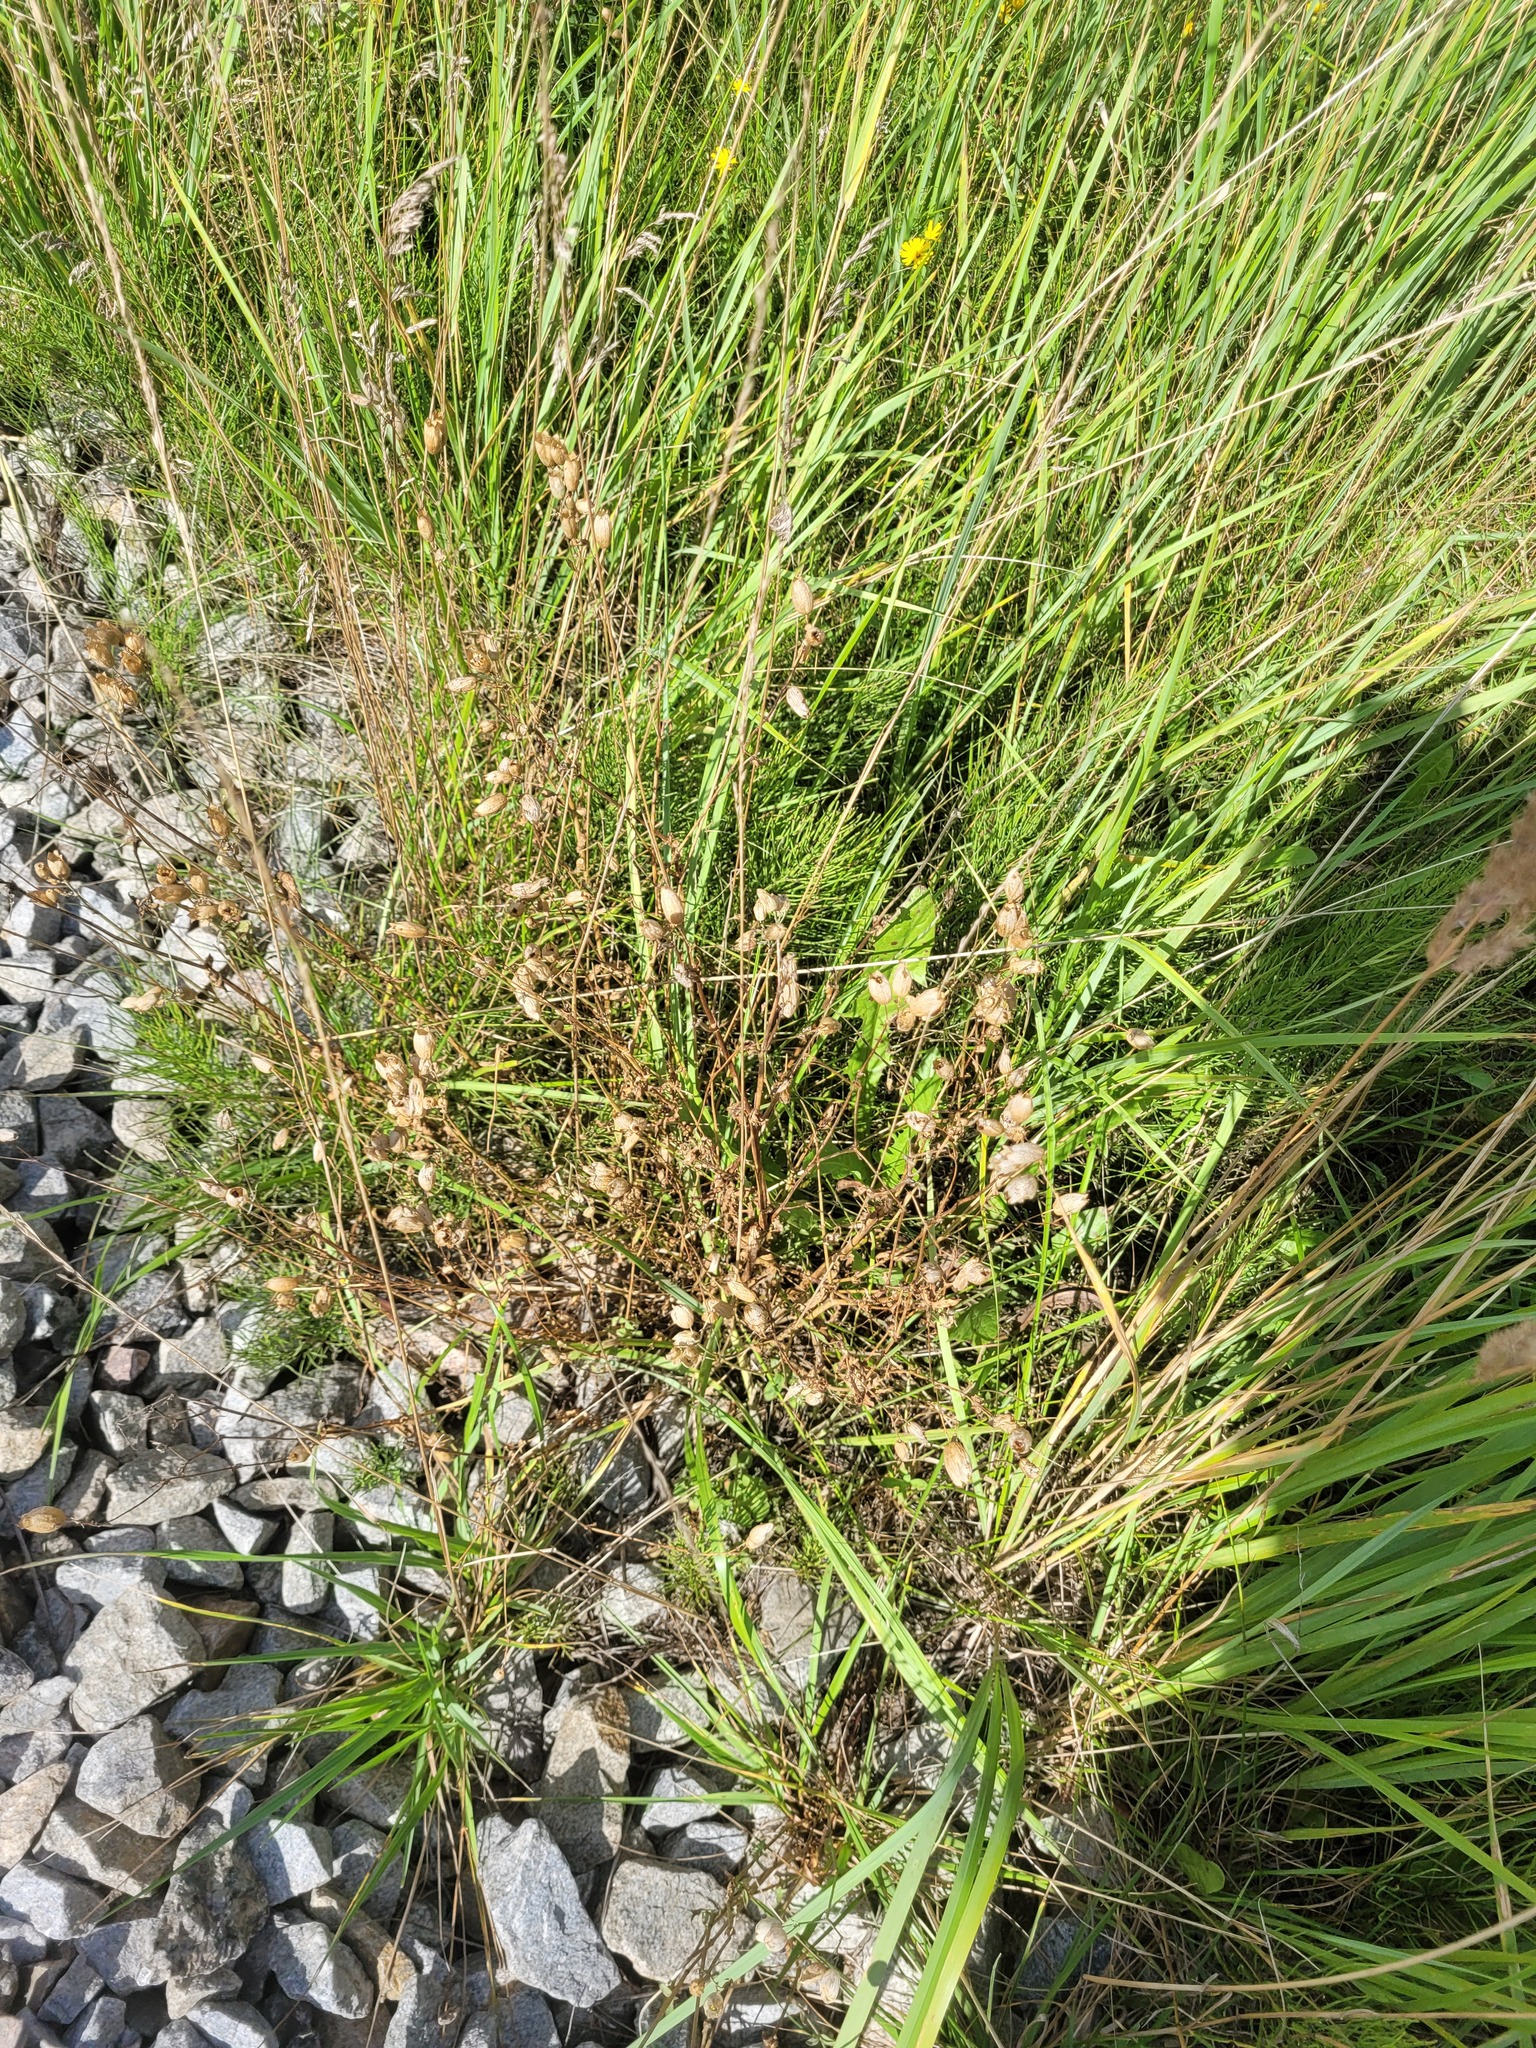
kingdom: Plantae
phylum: Tracheophyta
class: Magnoliopsida
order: Caryophyllales
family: Caryophyllaceae
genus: Silene
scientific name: Silene vulgaris
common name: Bladder campion
